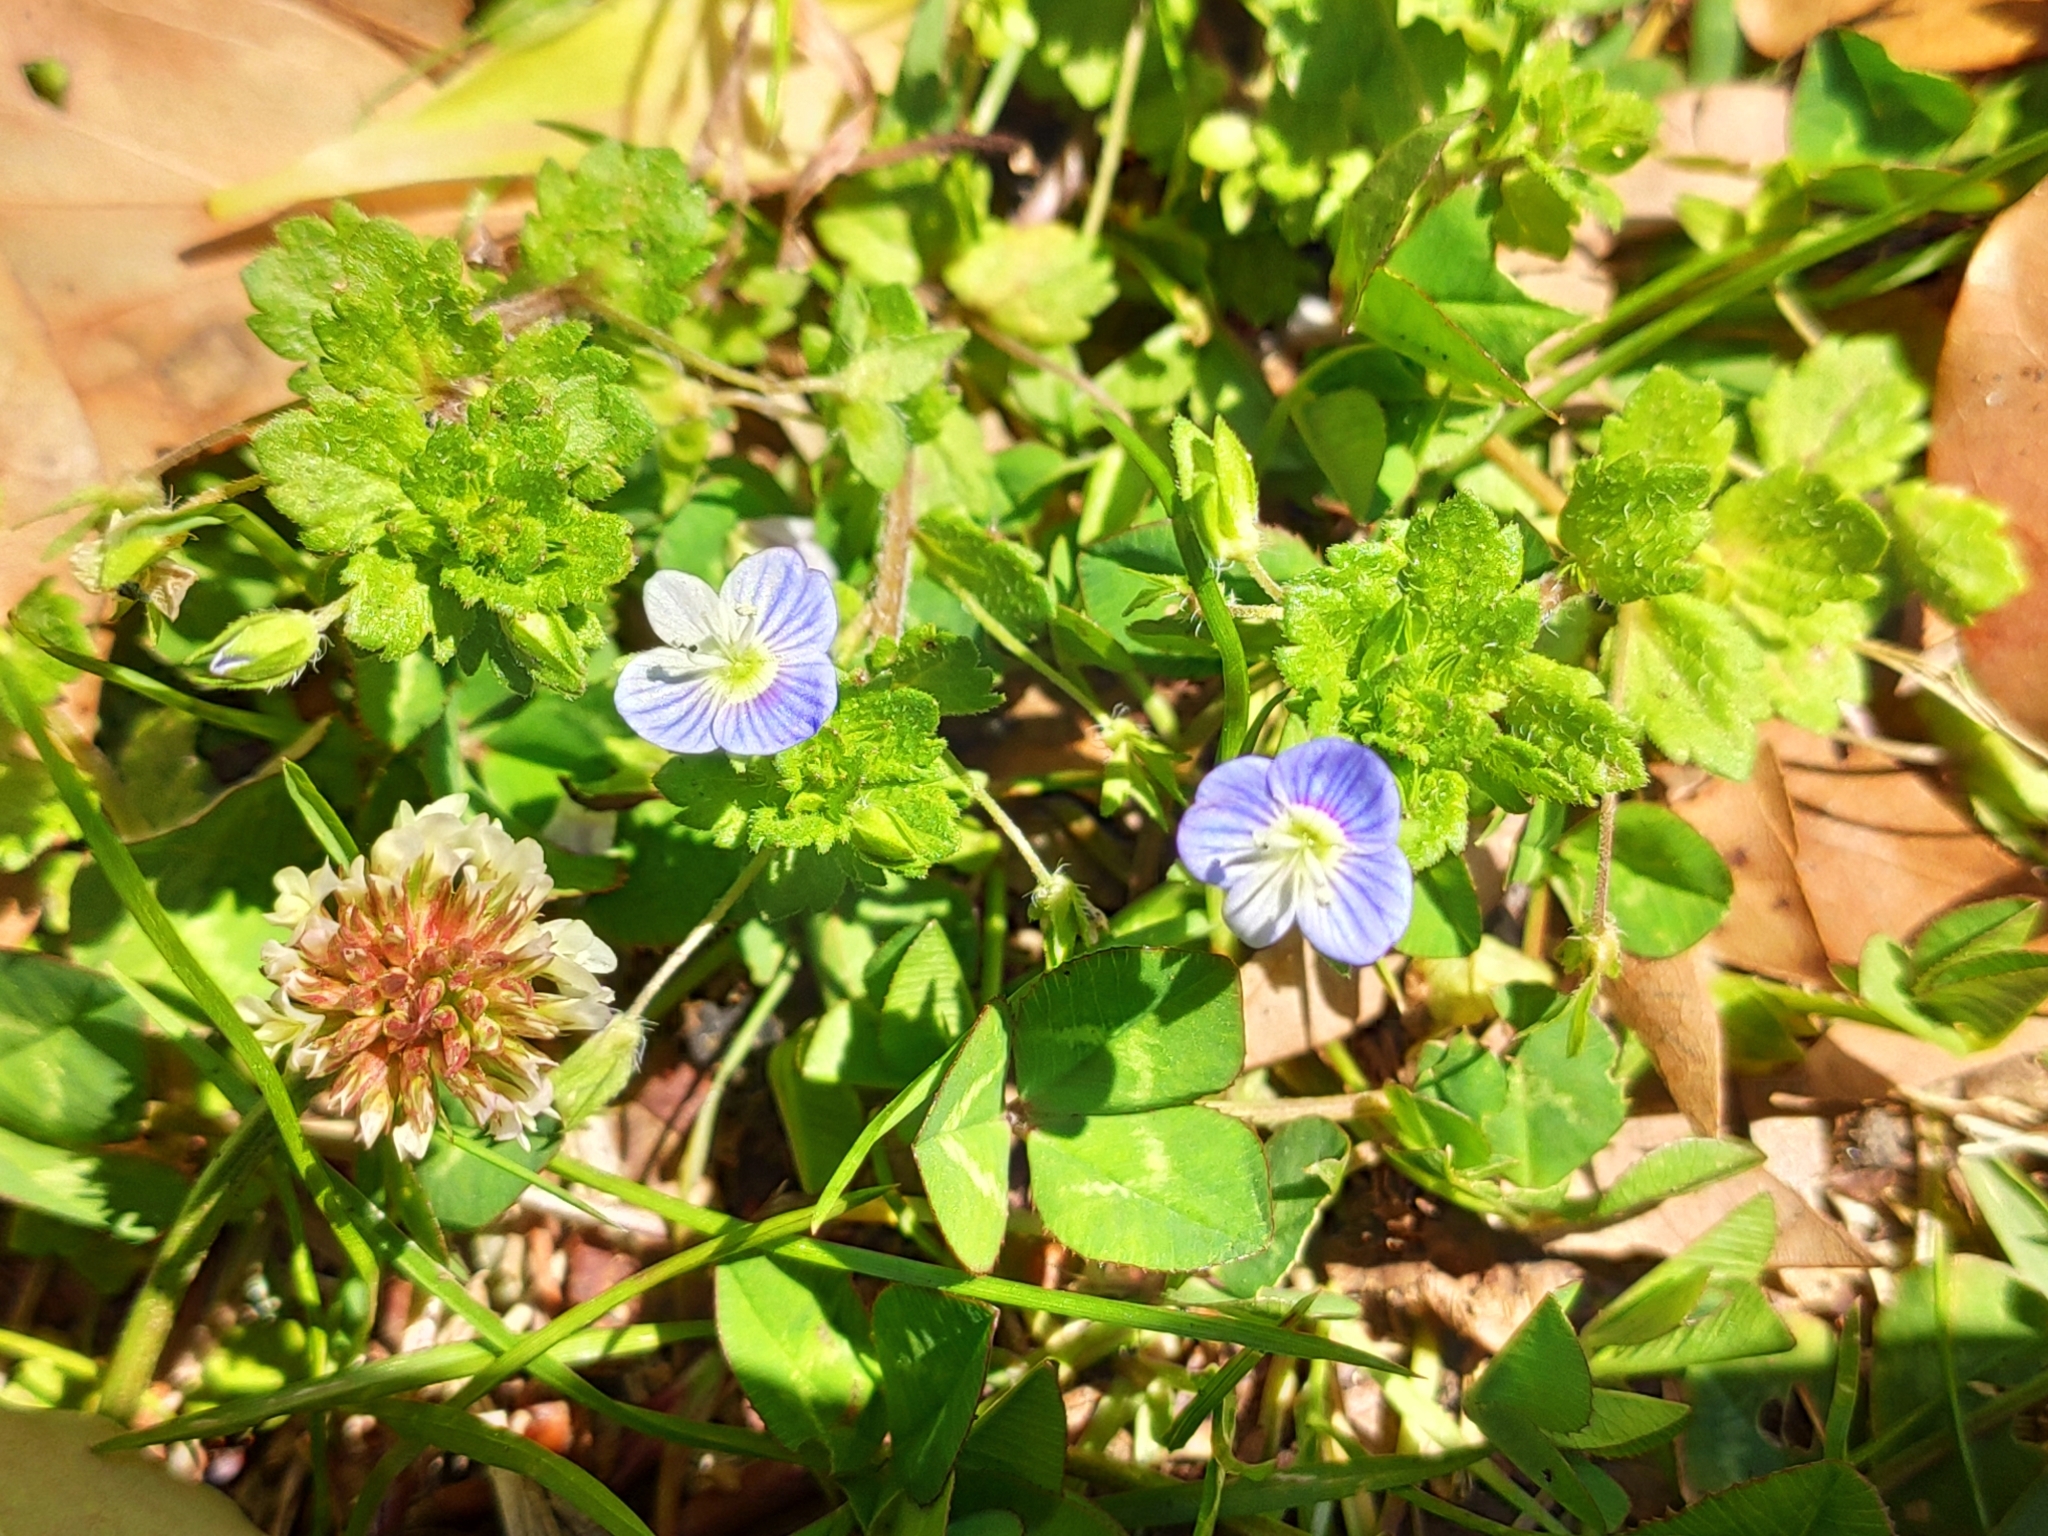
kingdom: Plantae
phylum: Tracheophyta
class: Magnoliopsida
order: Lamiales
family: Plantaginaceae
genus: Veronica
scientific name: Veronica persica
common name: Common field-speedwell
